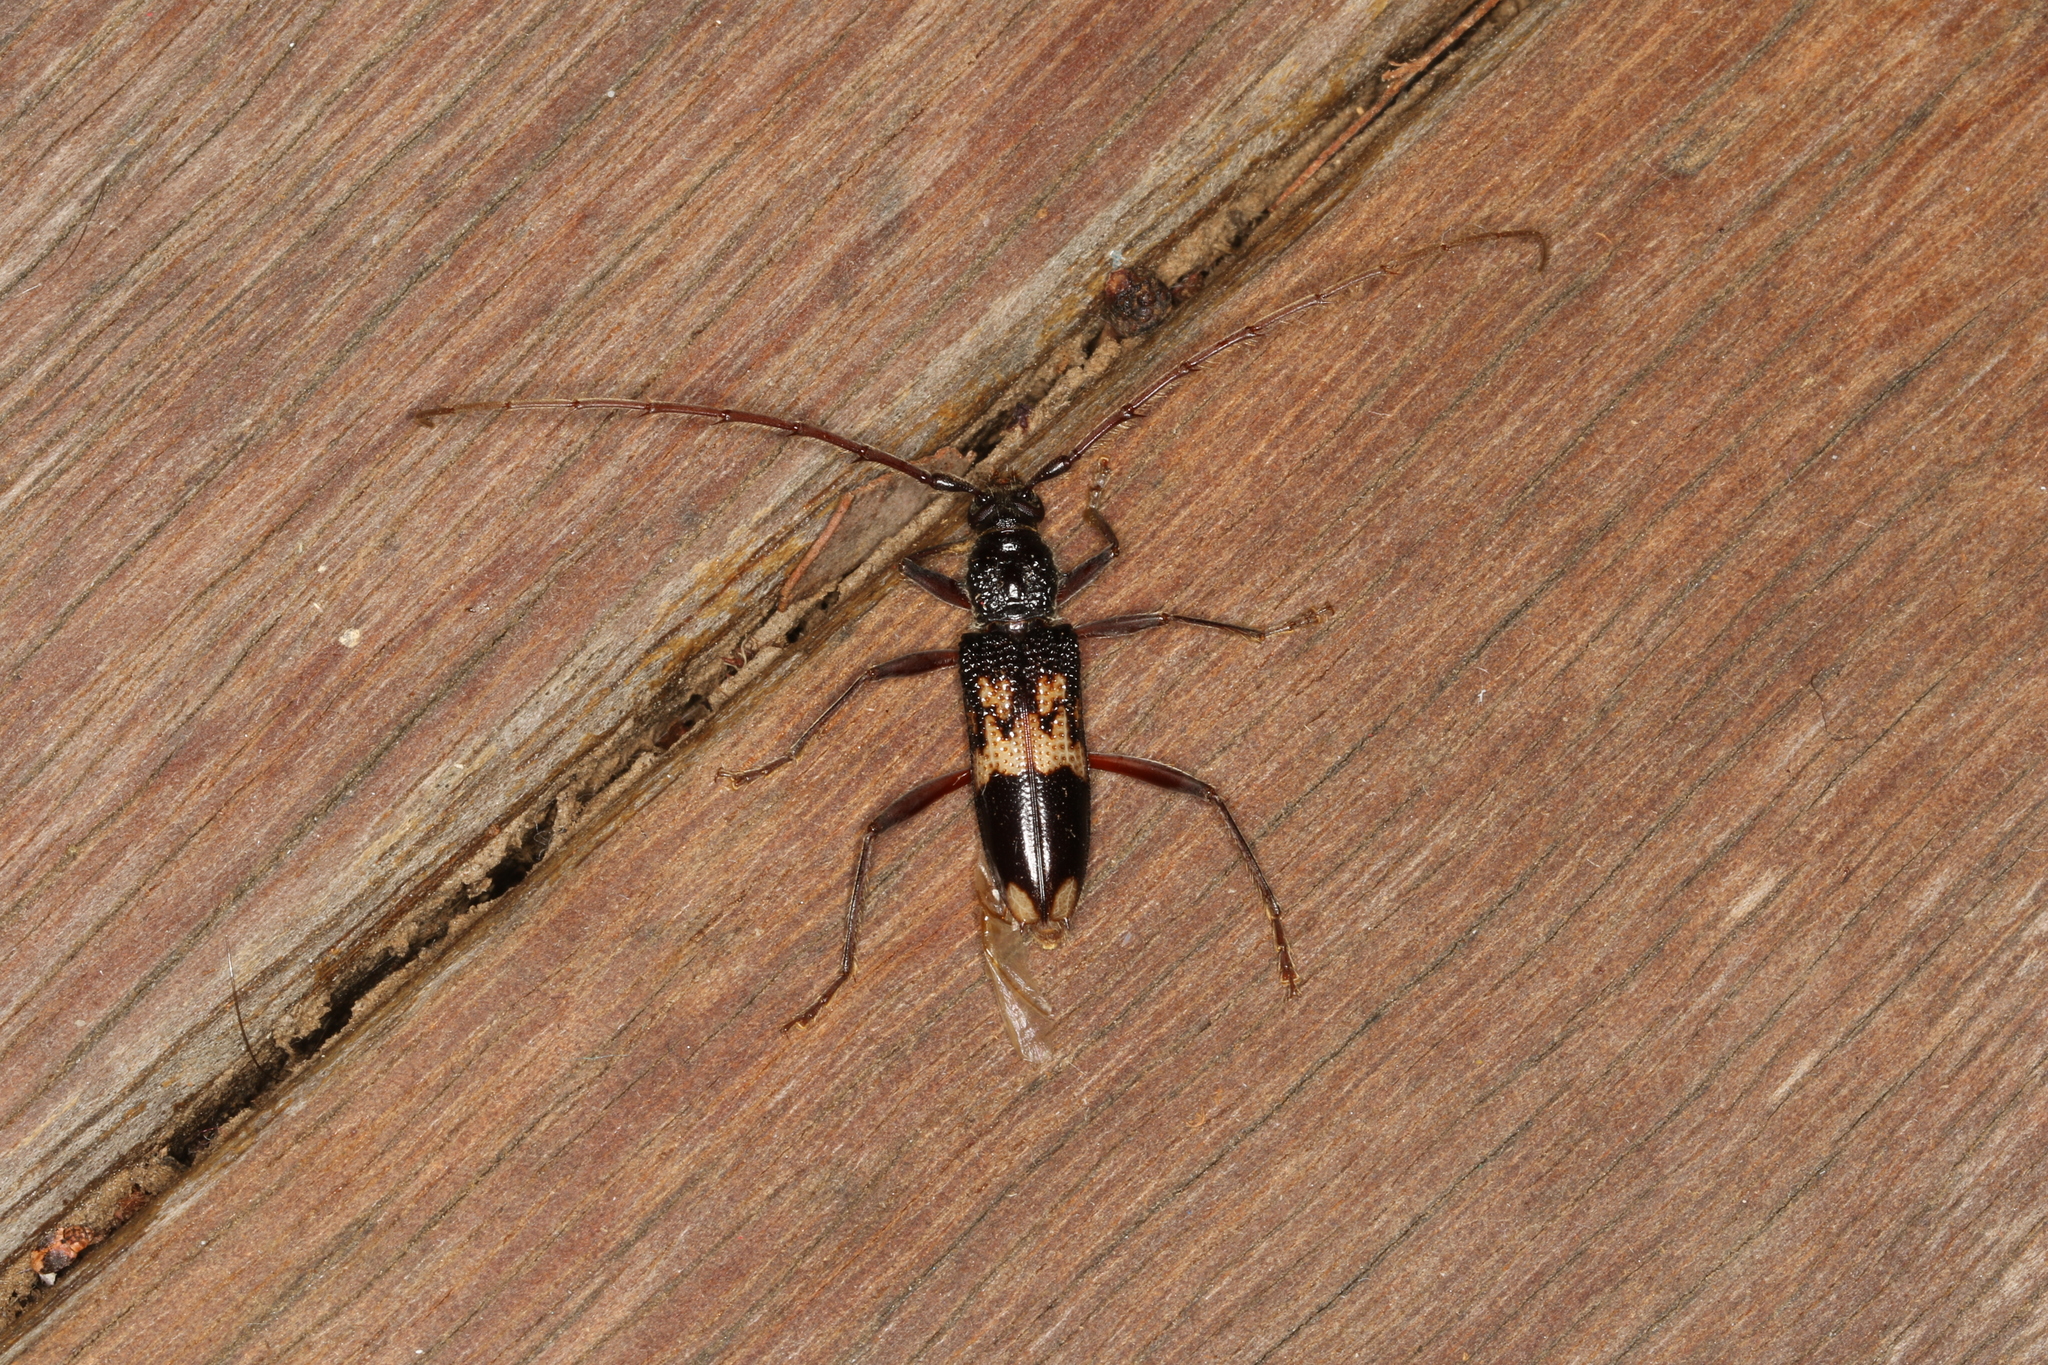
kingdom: Animalia
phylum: Arthropoda
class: Insecta
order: Coleoptera
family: Cerambycidae
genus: Phoracantha
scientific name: Phoracantha semipunctata
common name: Eucalyptus longhorn borer
